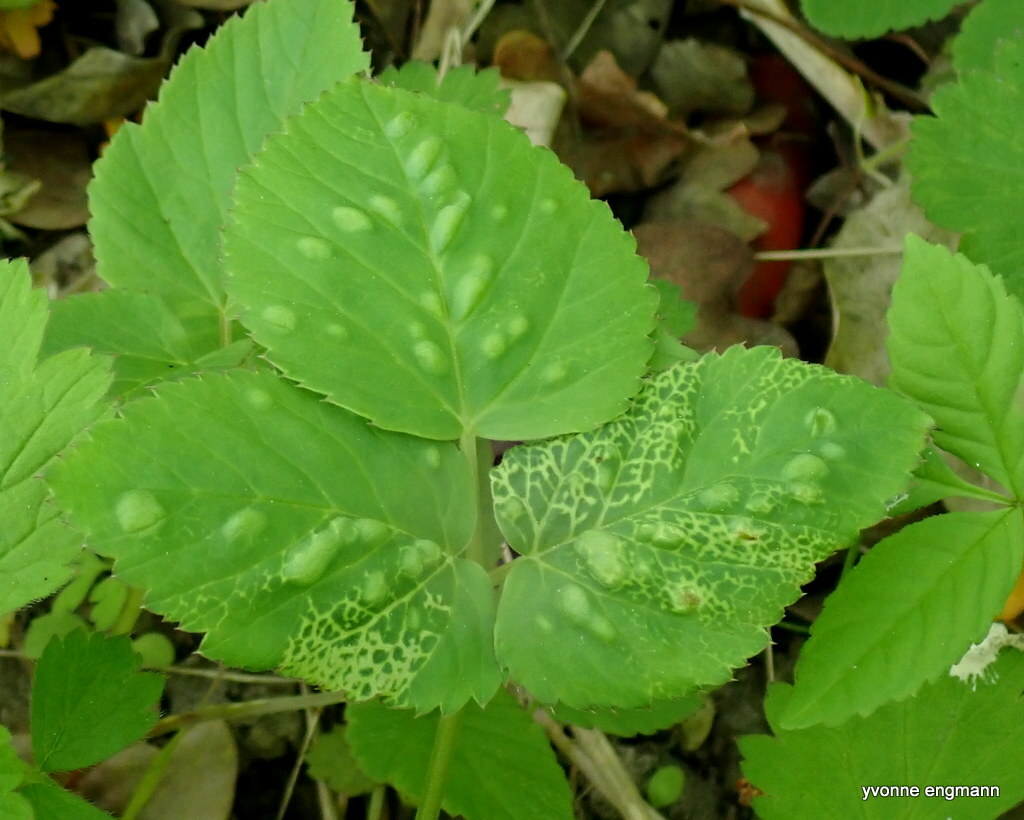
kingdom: Animalia
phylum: Arthropoda
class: Insecta
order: Hemiptera
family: Triozidae
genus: Trioza
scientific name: Trioza flavipennis
